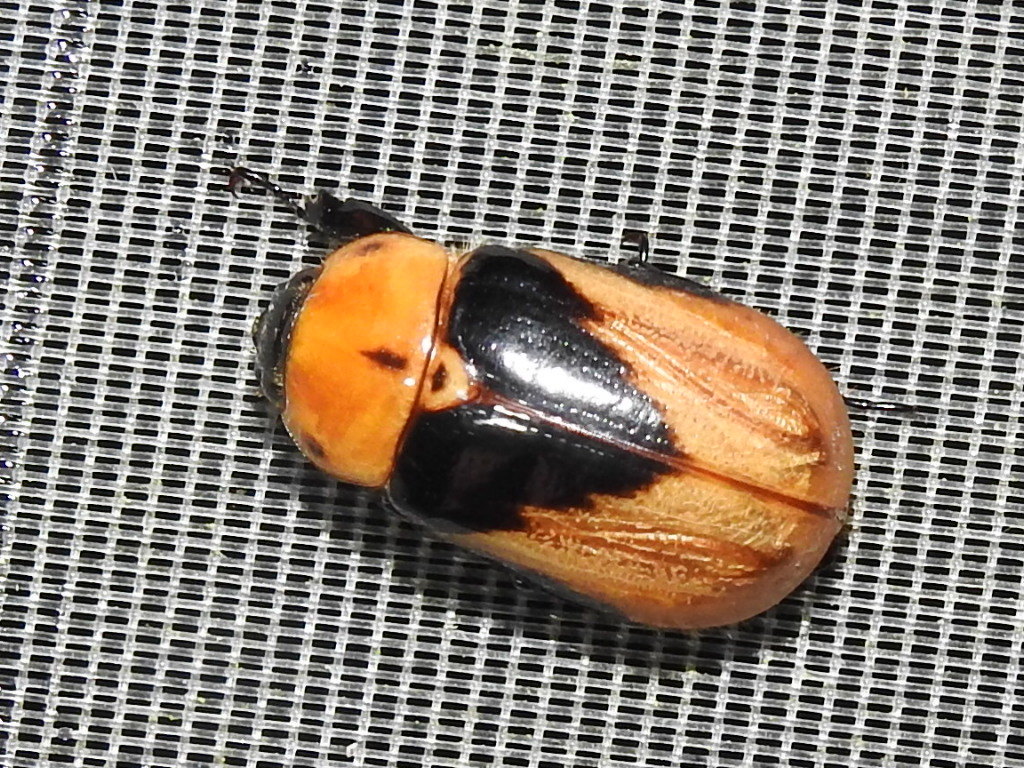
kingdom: Animalia
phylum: Arthropoda
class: Insecta
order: Coleoptera
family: Scarabaeidae
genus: Ancognatha
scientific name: Ancognatha gracilis
